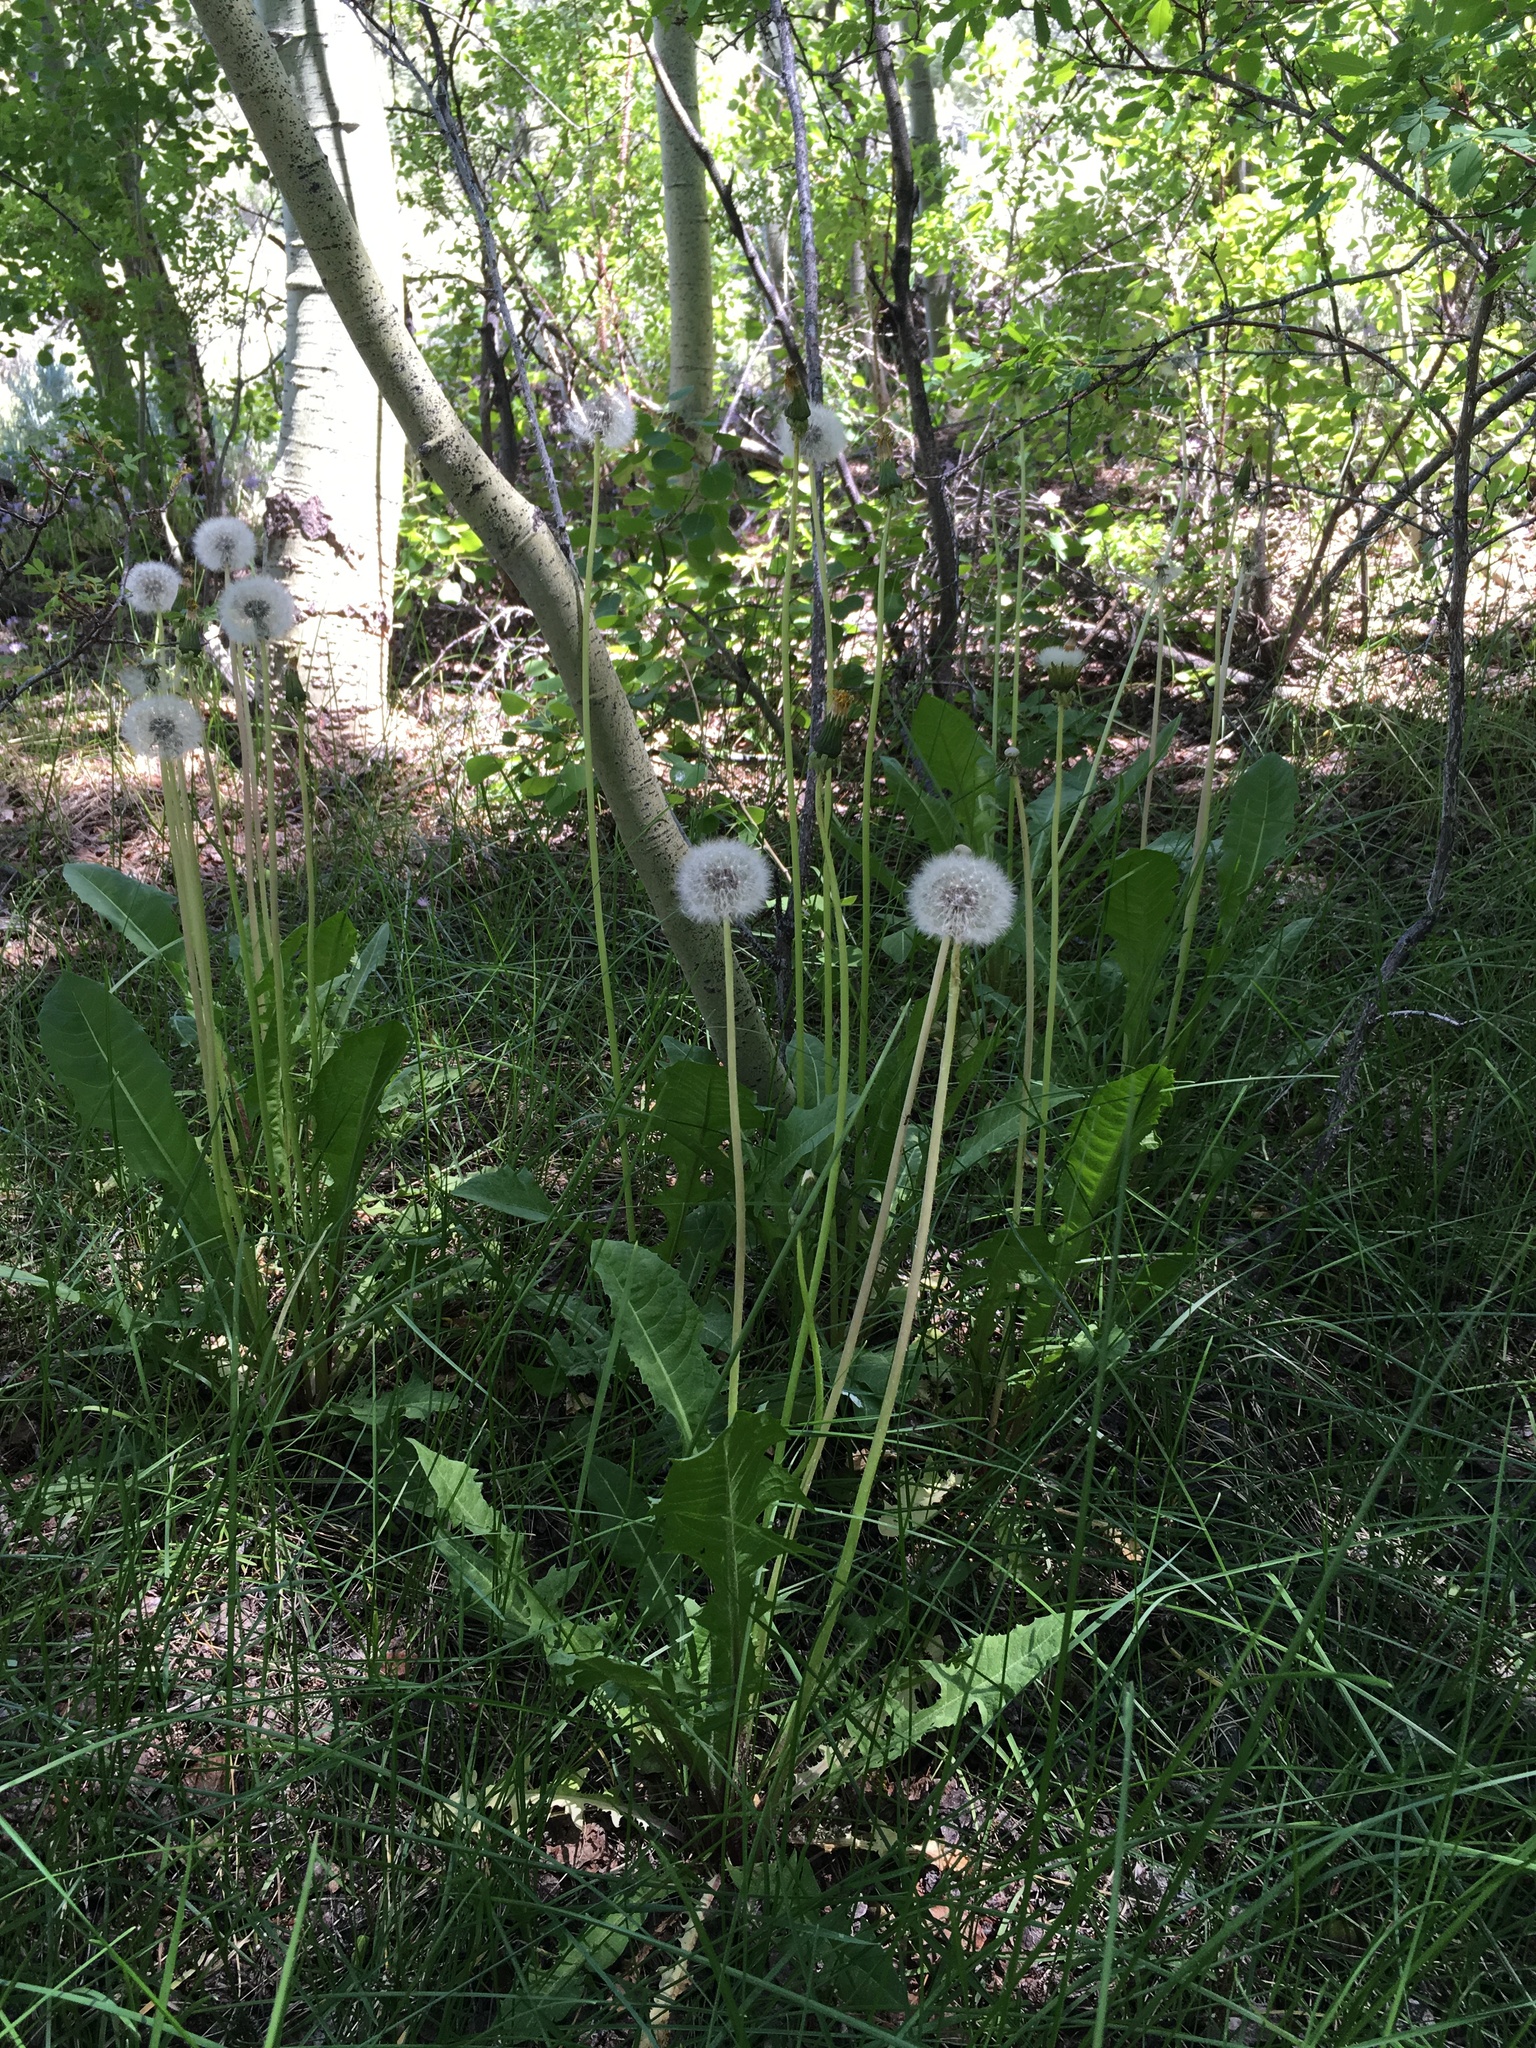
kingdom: Plantae
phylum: Tracheophyta
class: Magnoliopsida
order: Asterales
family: Asteraceae
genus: Taraxacum
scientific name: Taraxacum officinale
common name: Common dandelion
